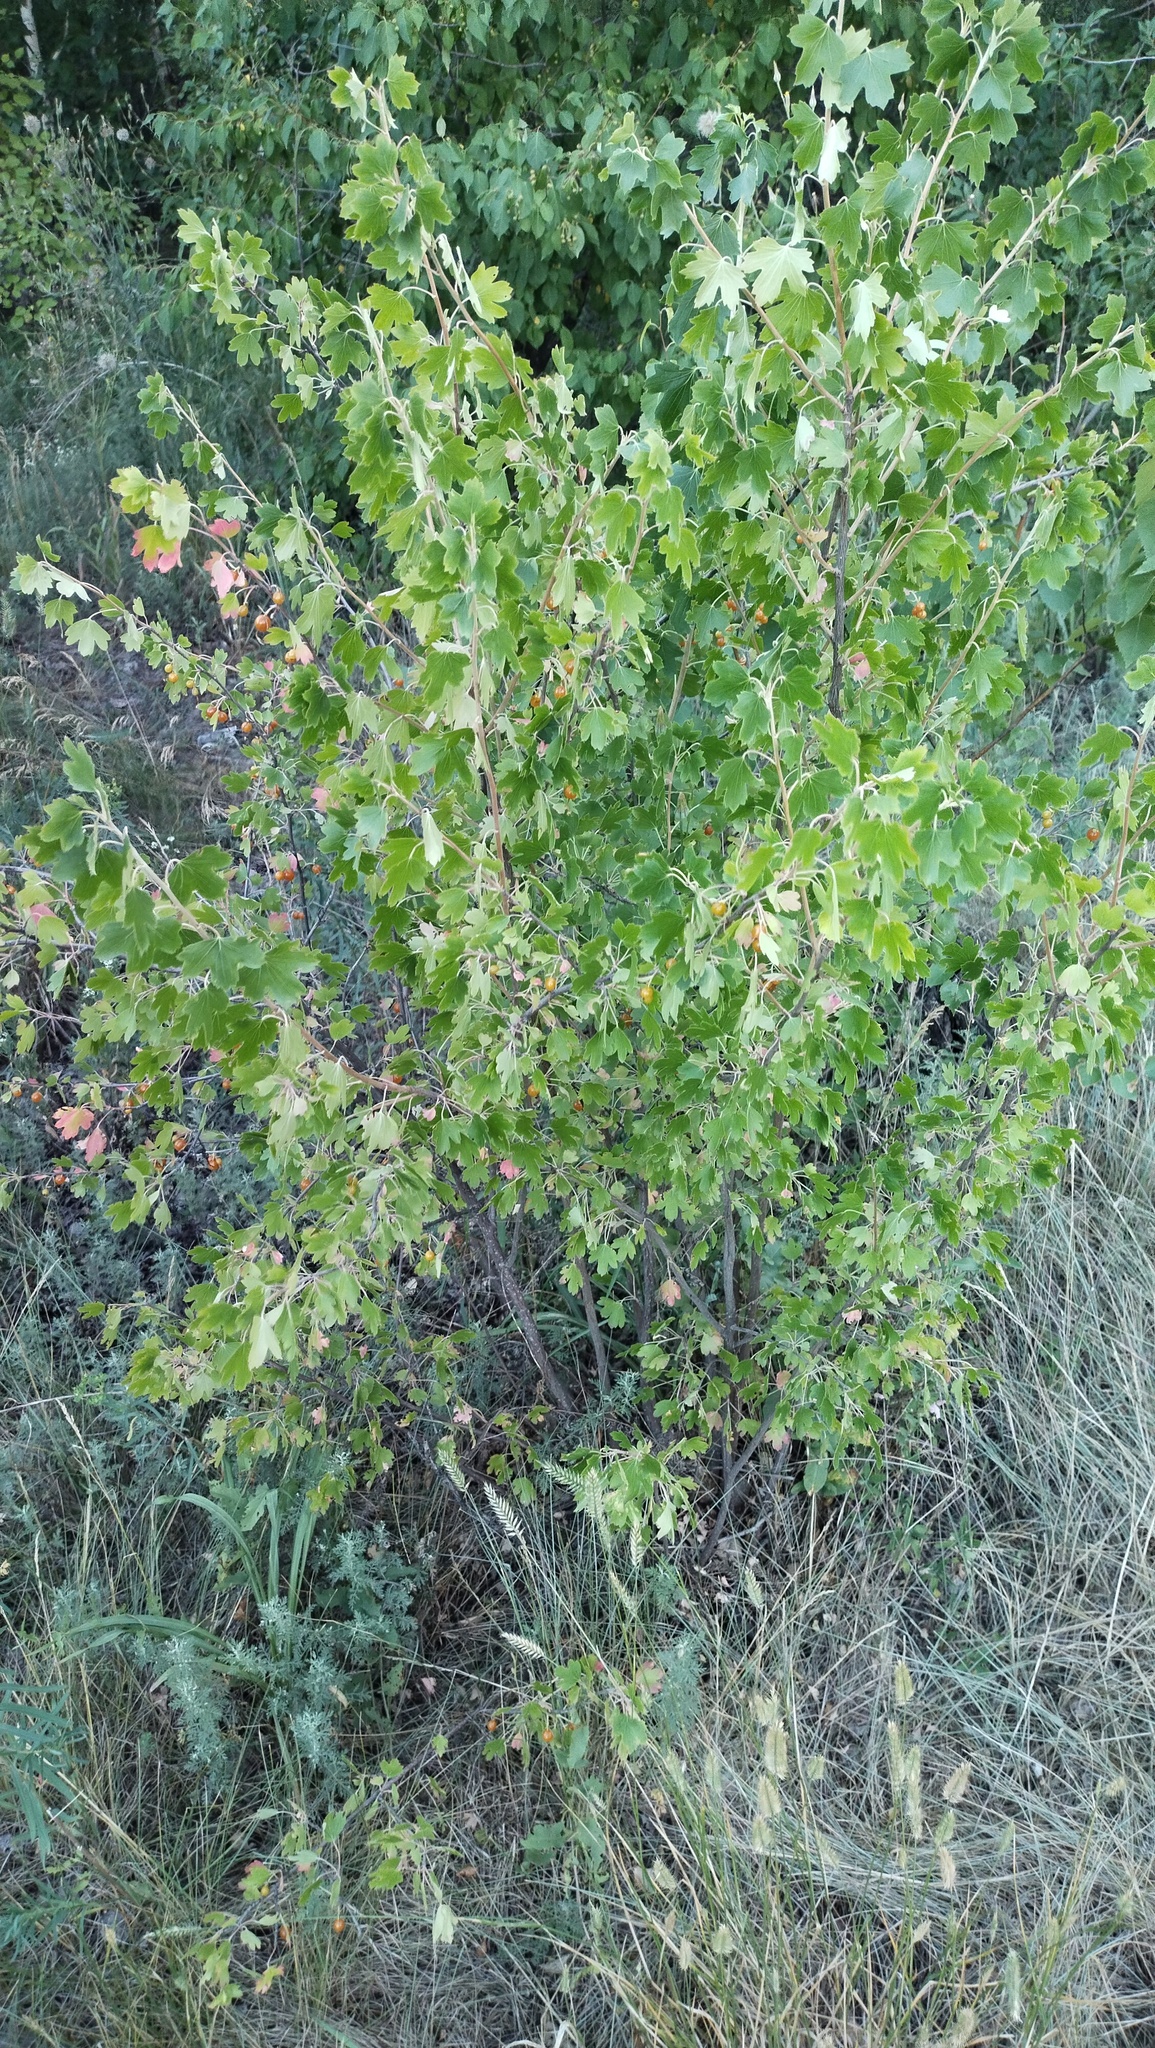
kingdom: Plantae
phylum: Tracheophyta
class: Magnoliopsida
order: Saxifragales
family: Grossulariaceae
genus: Ribes
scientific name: Ribes aureum
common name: Golden currant
